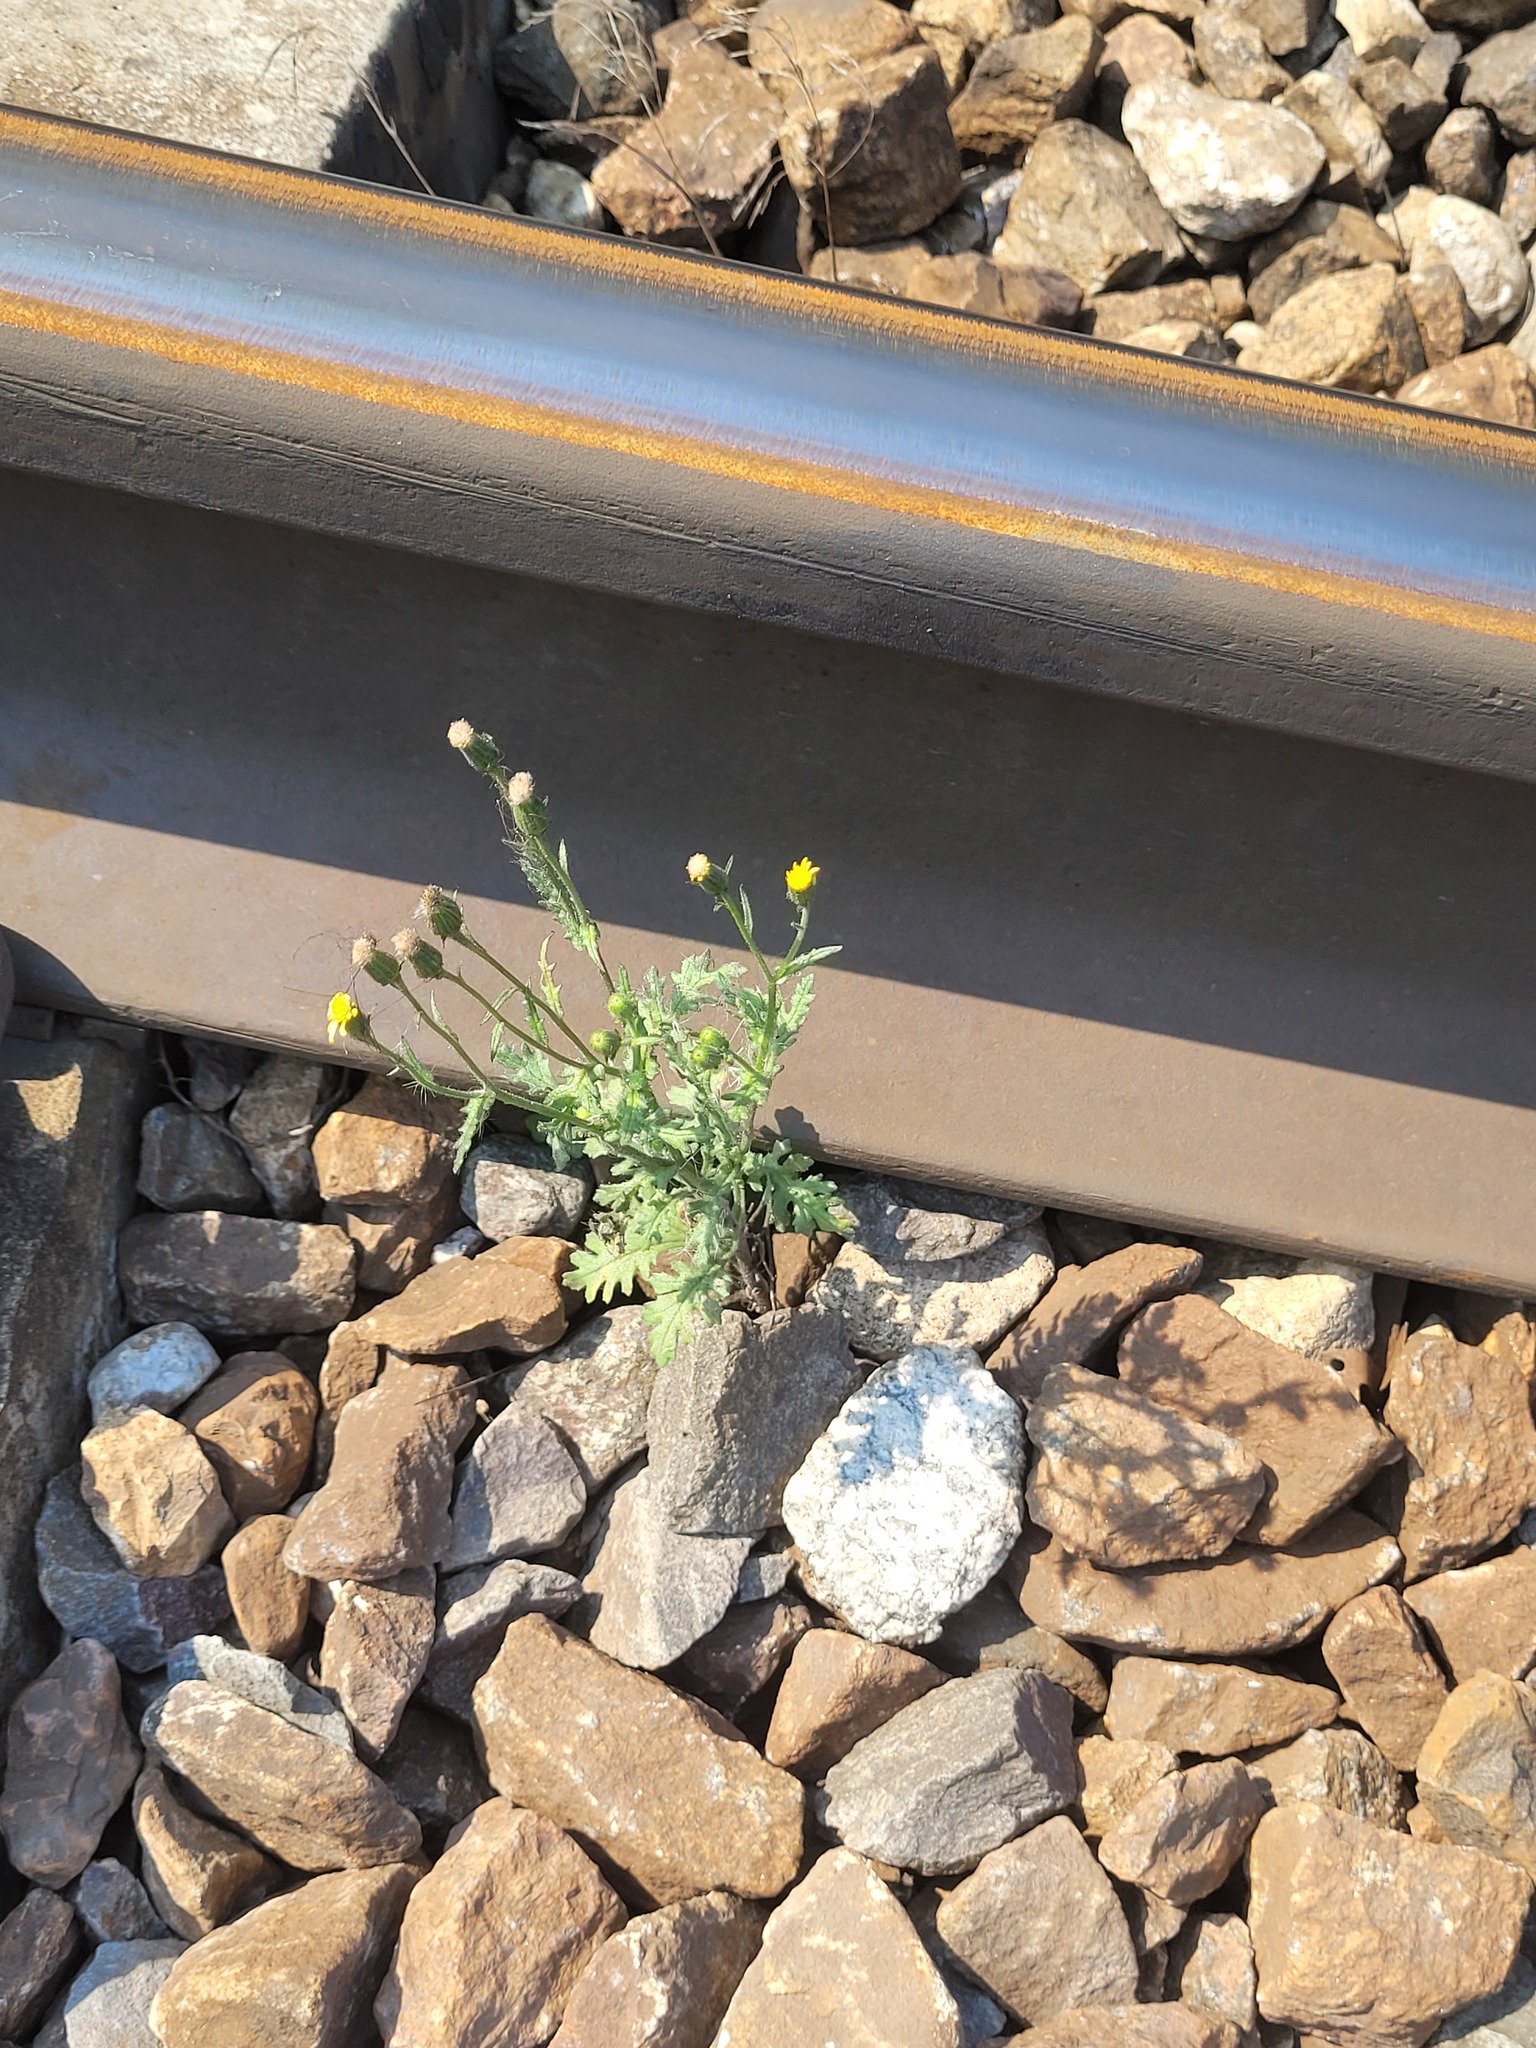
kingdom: Plantae
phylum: Tracheophyta
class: Magnoliopsida
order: Asterales
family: Asteraceae
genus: Senecio
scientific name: Senecio viscosus
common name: Sticky groundsel
